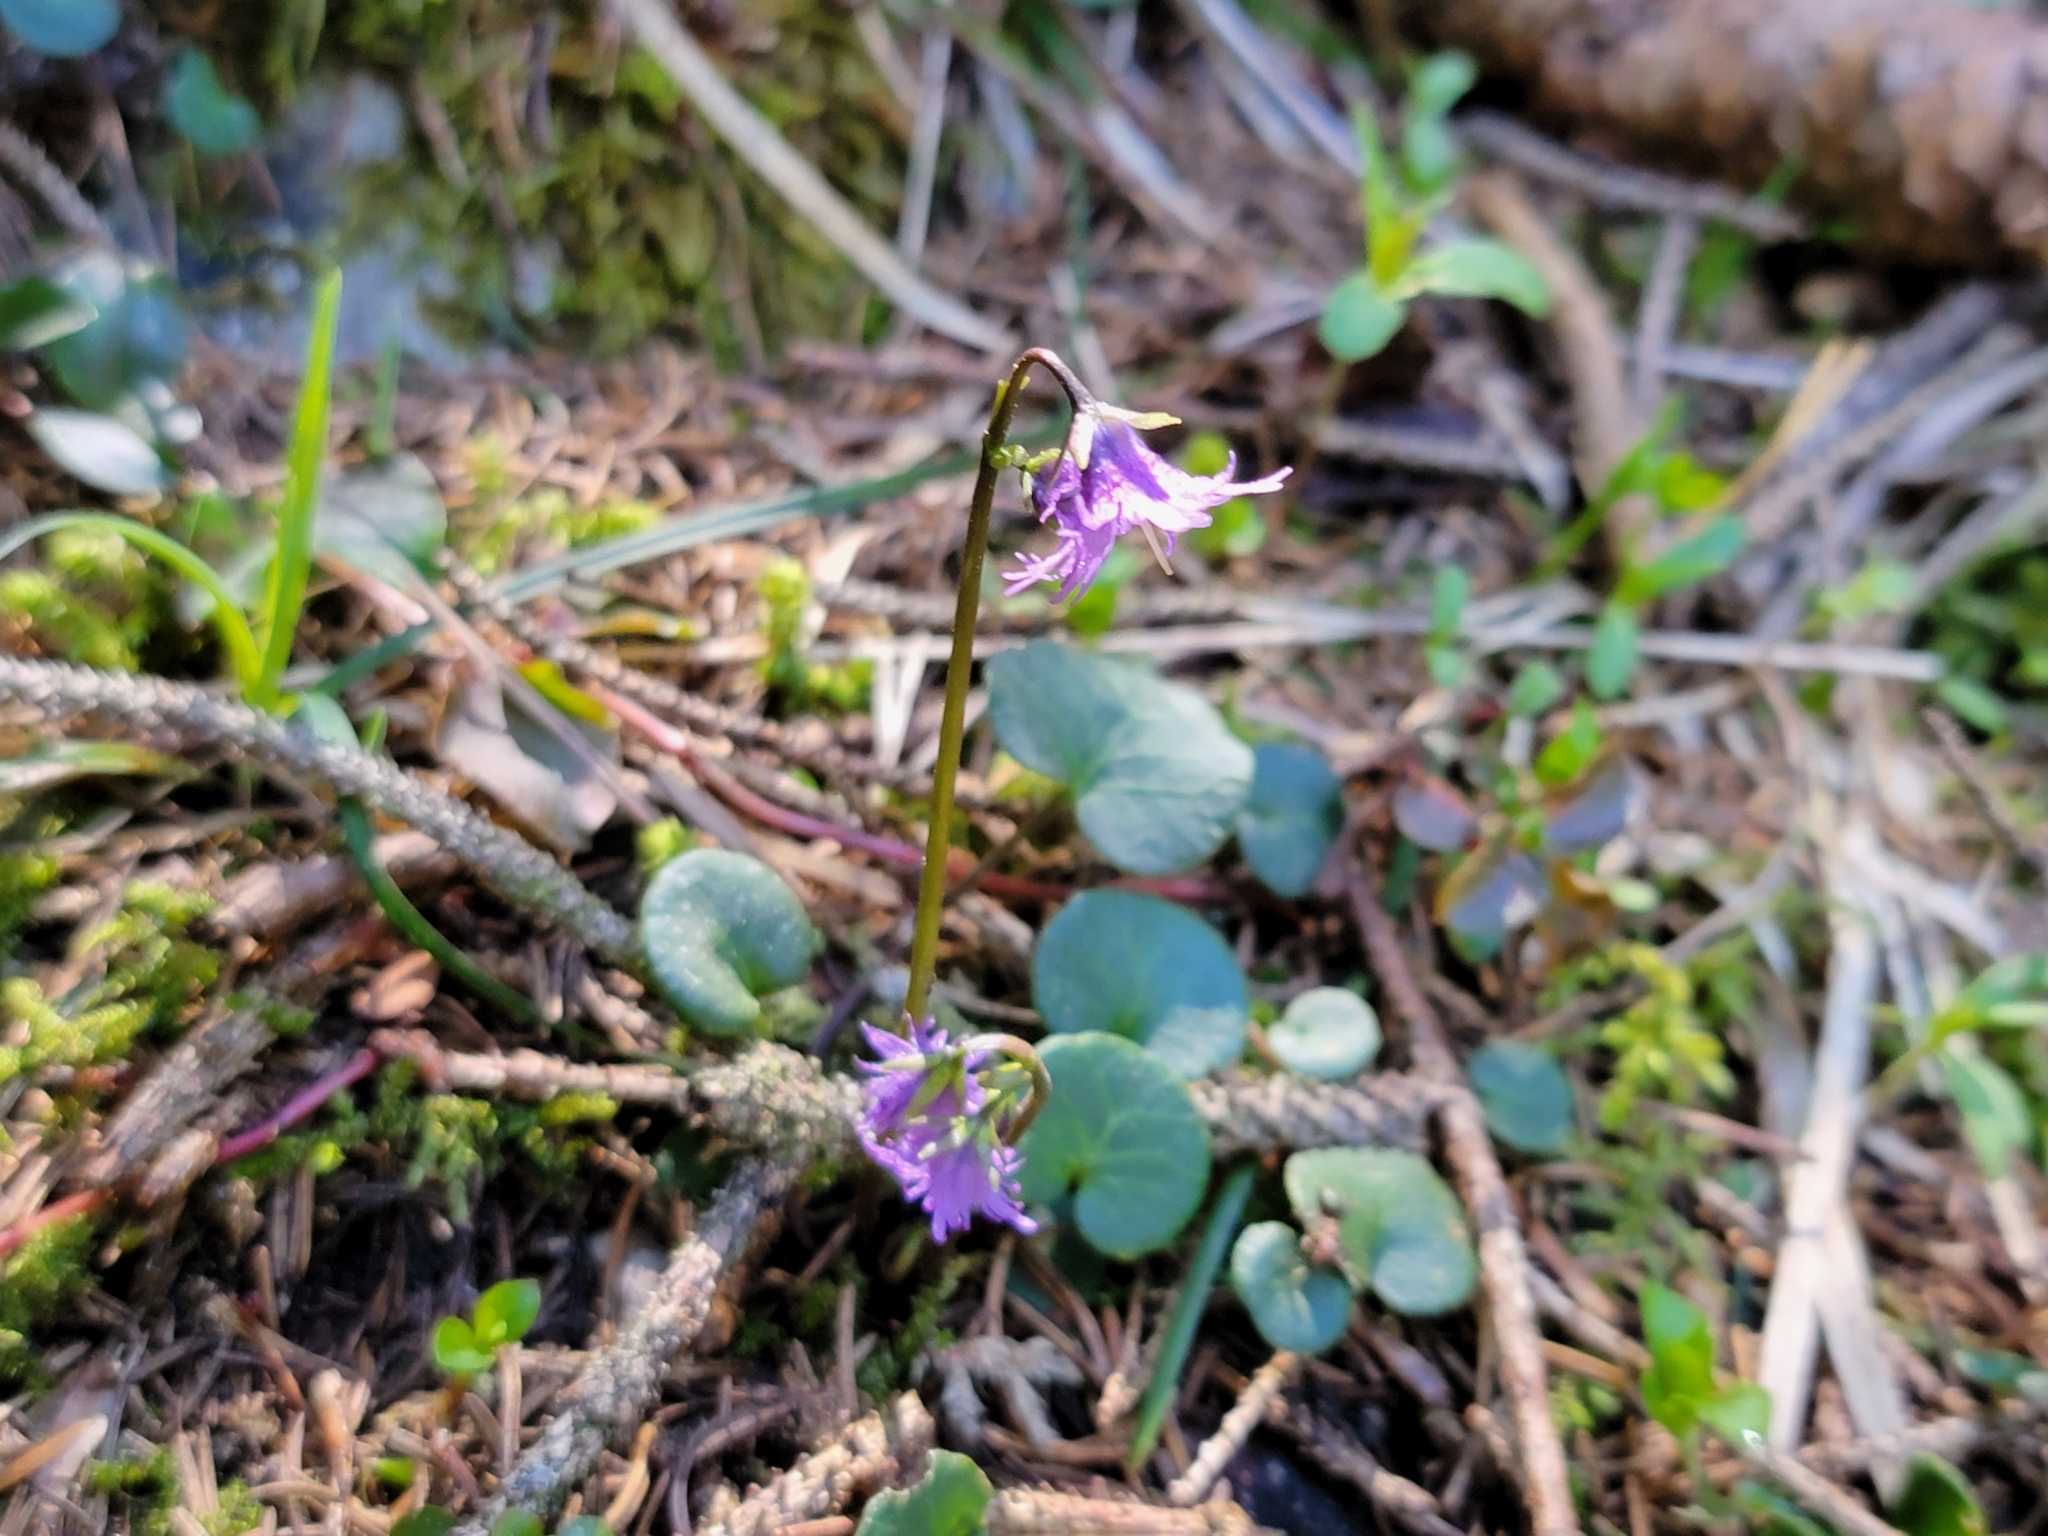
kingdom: Plantae
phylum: Tracheophyta
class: Magnoliopsida
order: Ericales
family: Primulaceae
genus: Soldanella
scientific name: Soldanella alpina
